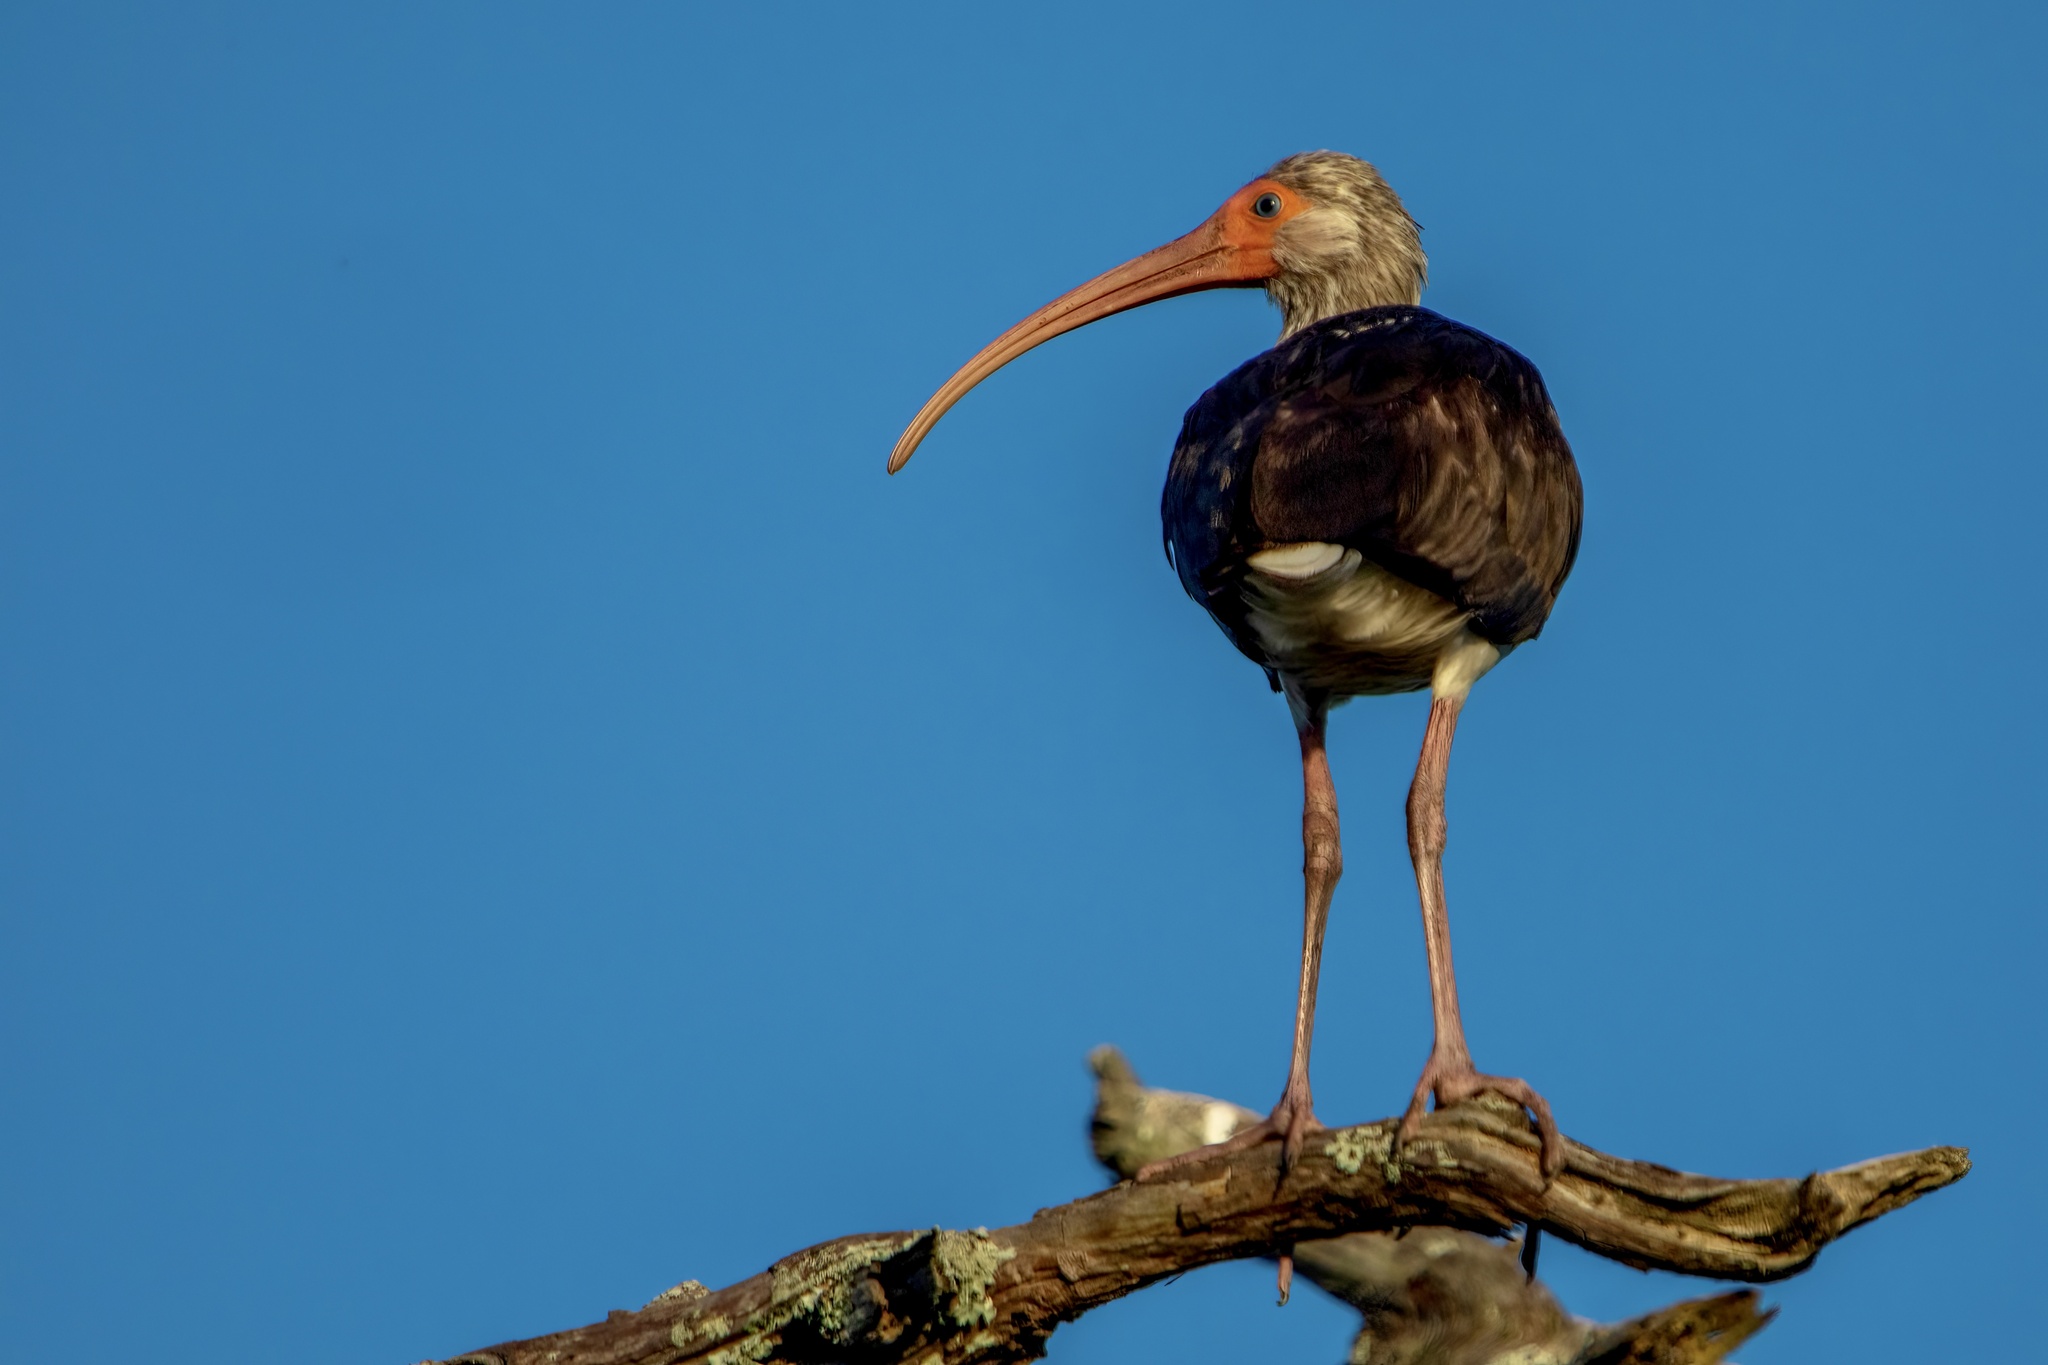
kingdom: Animalia
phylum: Chordata
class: Aves
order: Pelecaniformes
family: Threskiornithidae
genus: Eudocimus
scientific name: Eudocimus albus
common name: White ibis
